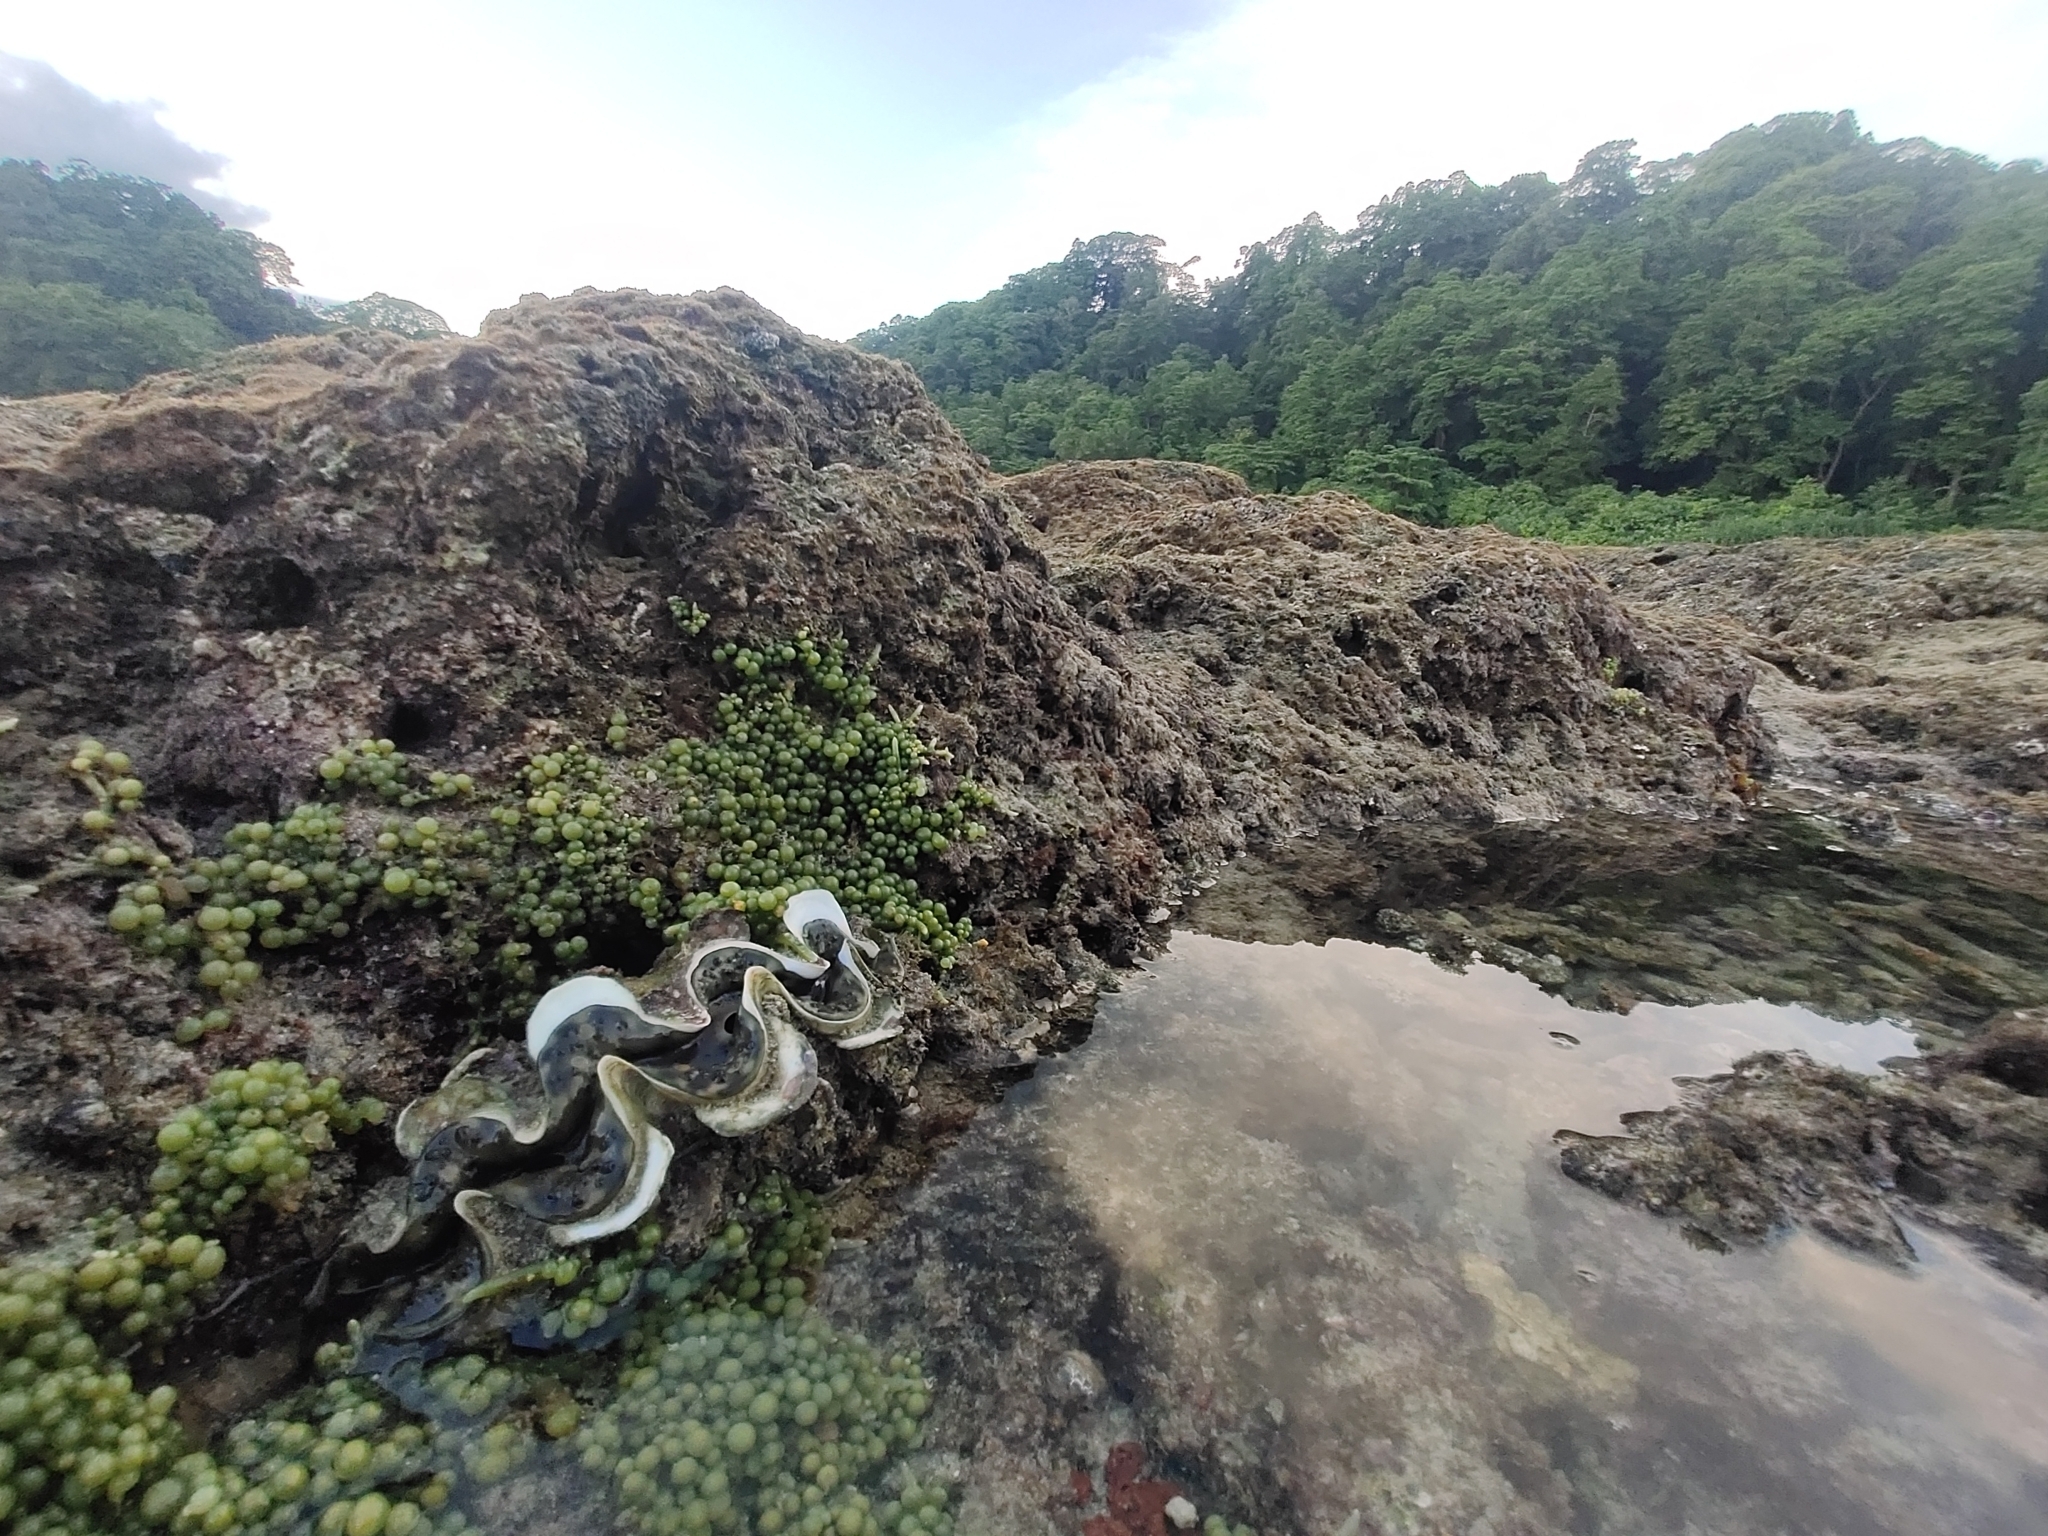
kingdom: Plantae
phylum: Chlorophyta
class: Ulvophyceae
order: Bryopsidales
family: Caulerpaceae
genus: Caulerpa
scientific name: Caulerpa racemosa
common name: Green grape algae
